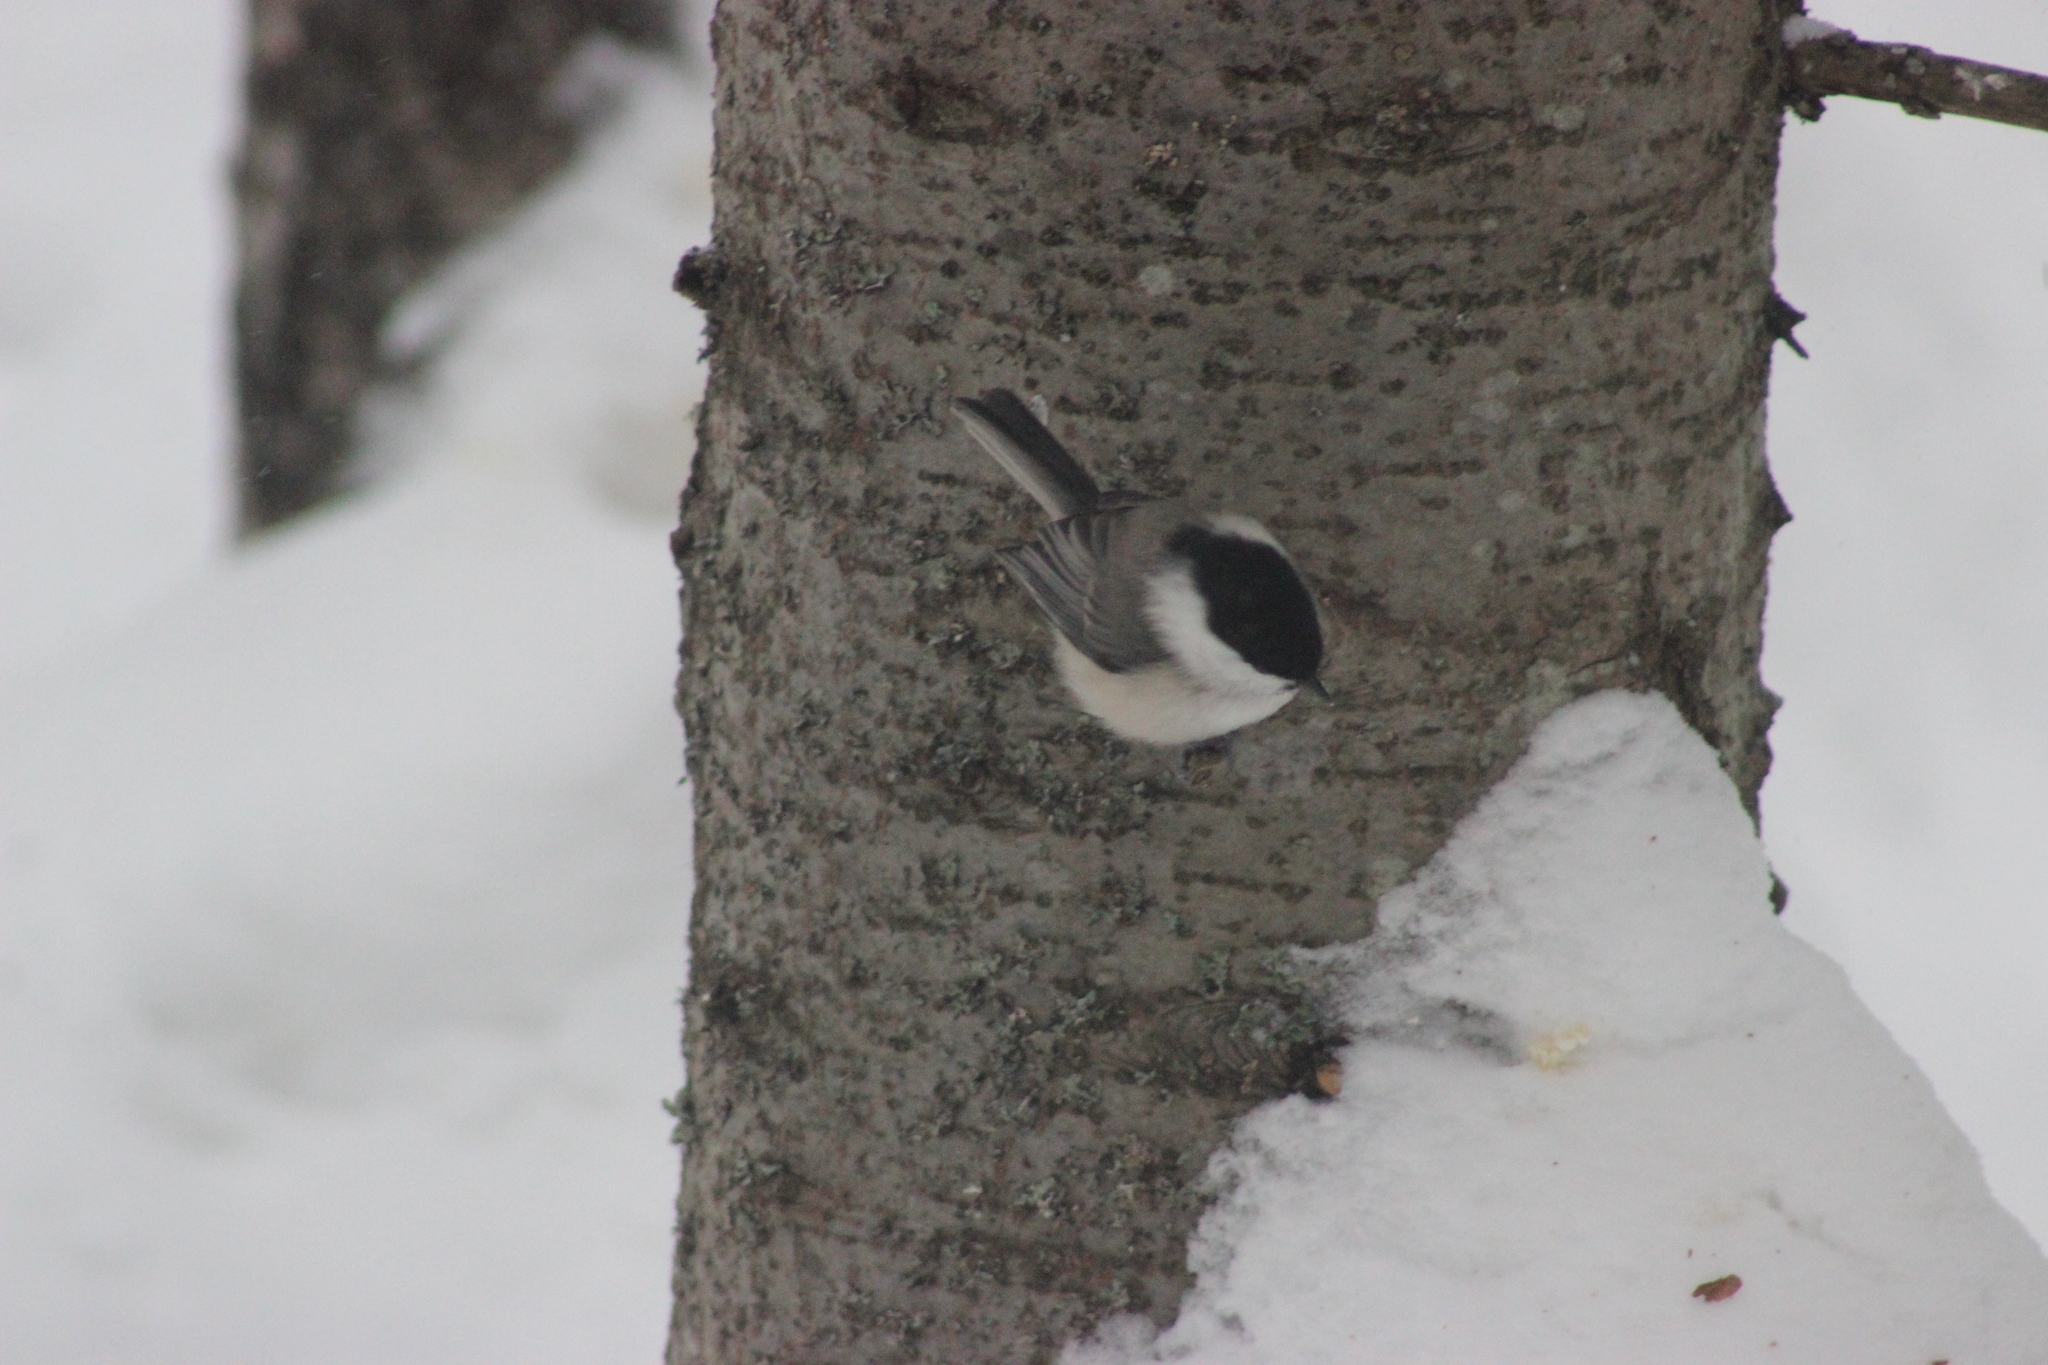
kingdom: Animalia
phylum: Chordata
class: Aves
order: Passeriformes
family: Paridae
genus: Poecile
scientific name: Poecile montanus
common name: Willow tit
